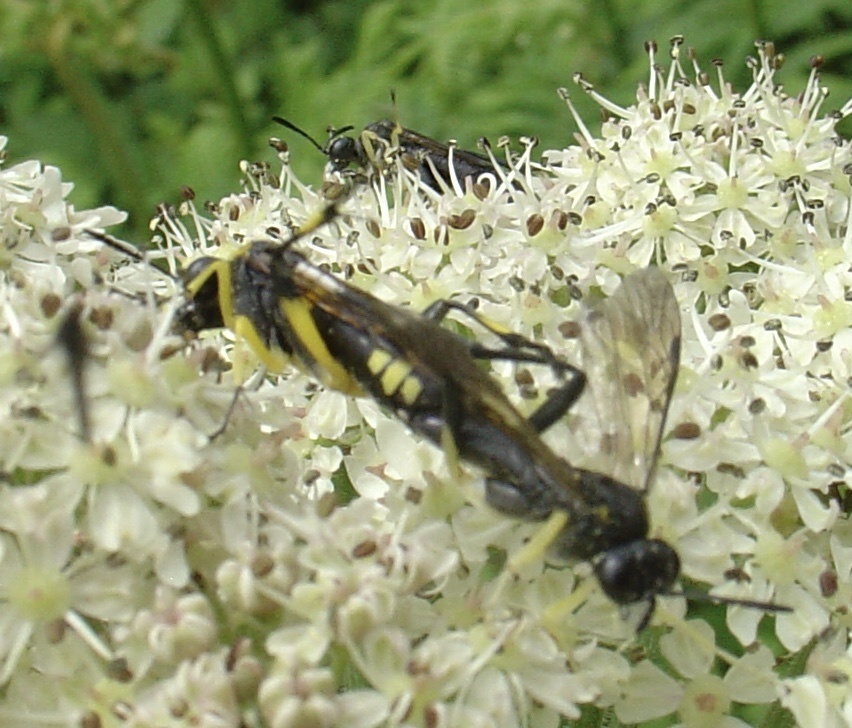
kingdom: Animalia
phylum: Arthropoda
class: Insecta
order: Hymenoptera
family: Tenthredinidae
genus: Macrophya
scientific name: Macrophya montana
